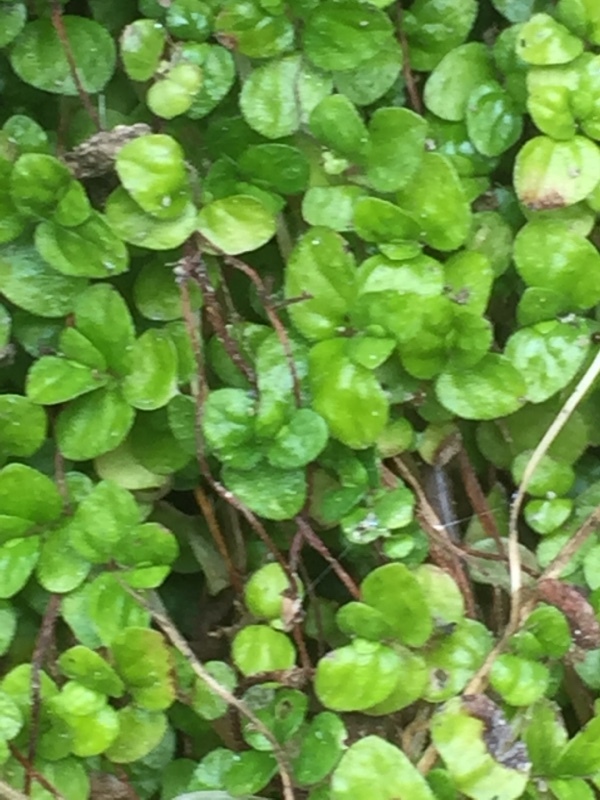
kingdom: Plantae
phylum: Tracheophyta
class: Magnoliopsida
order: Rosales
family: Urticaceae
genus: Soleirolia
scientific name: Soleirolia soleirolii
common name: Mind-your-own-business
